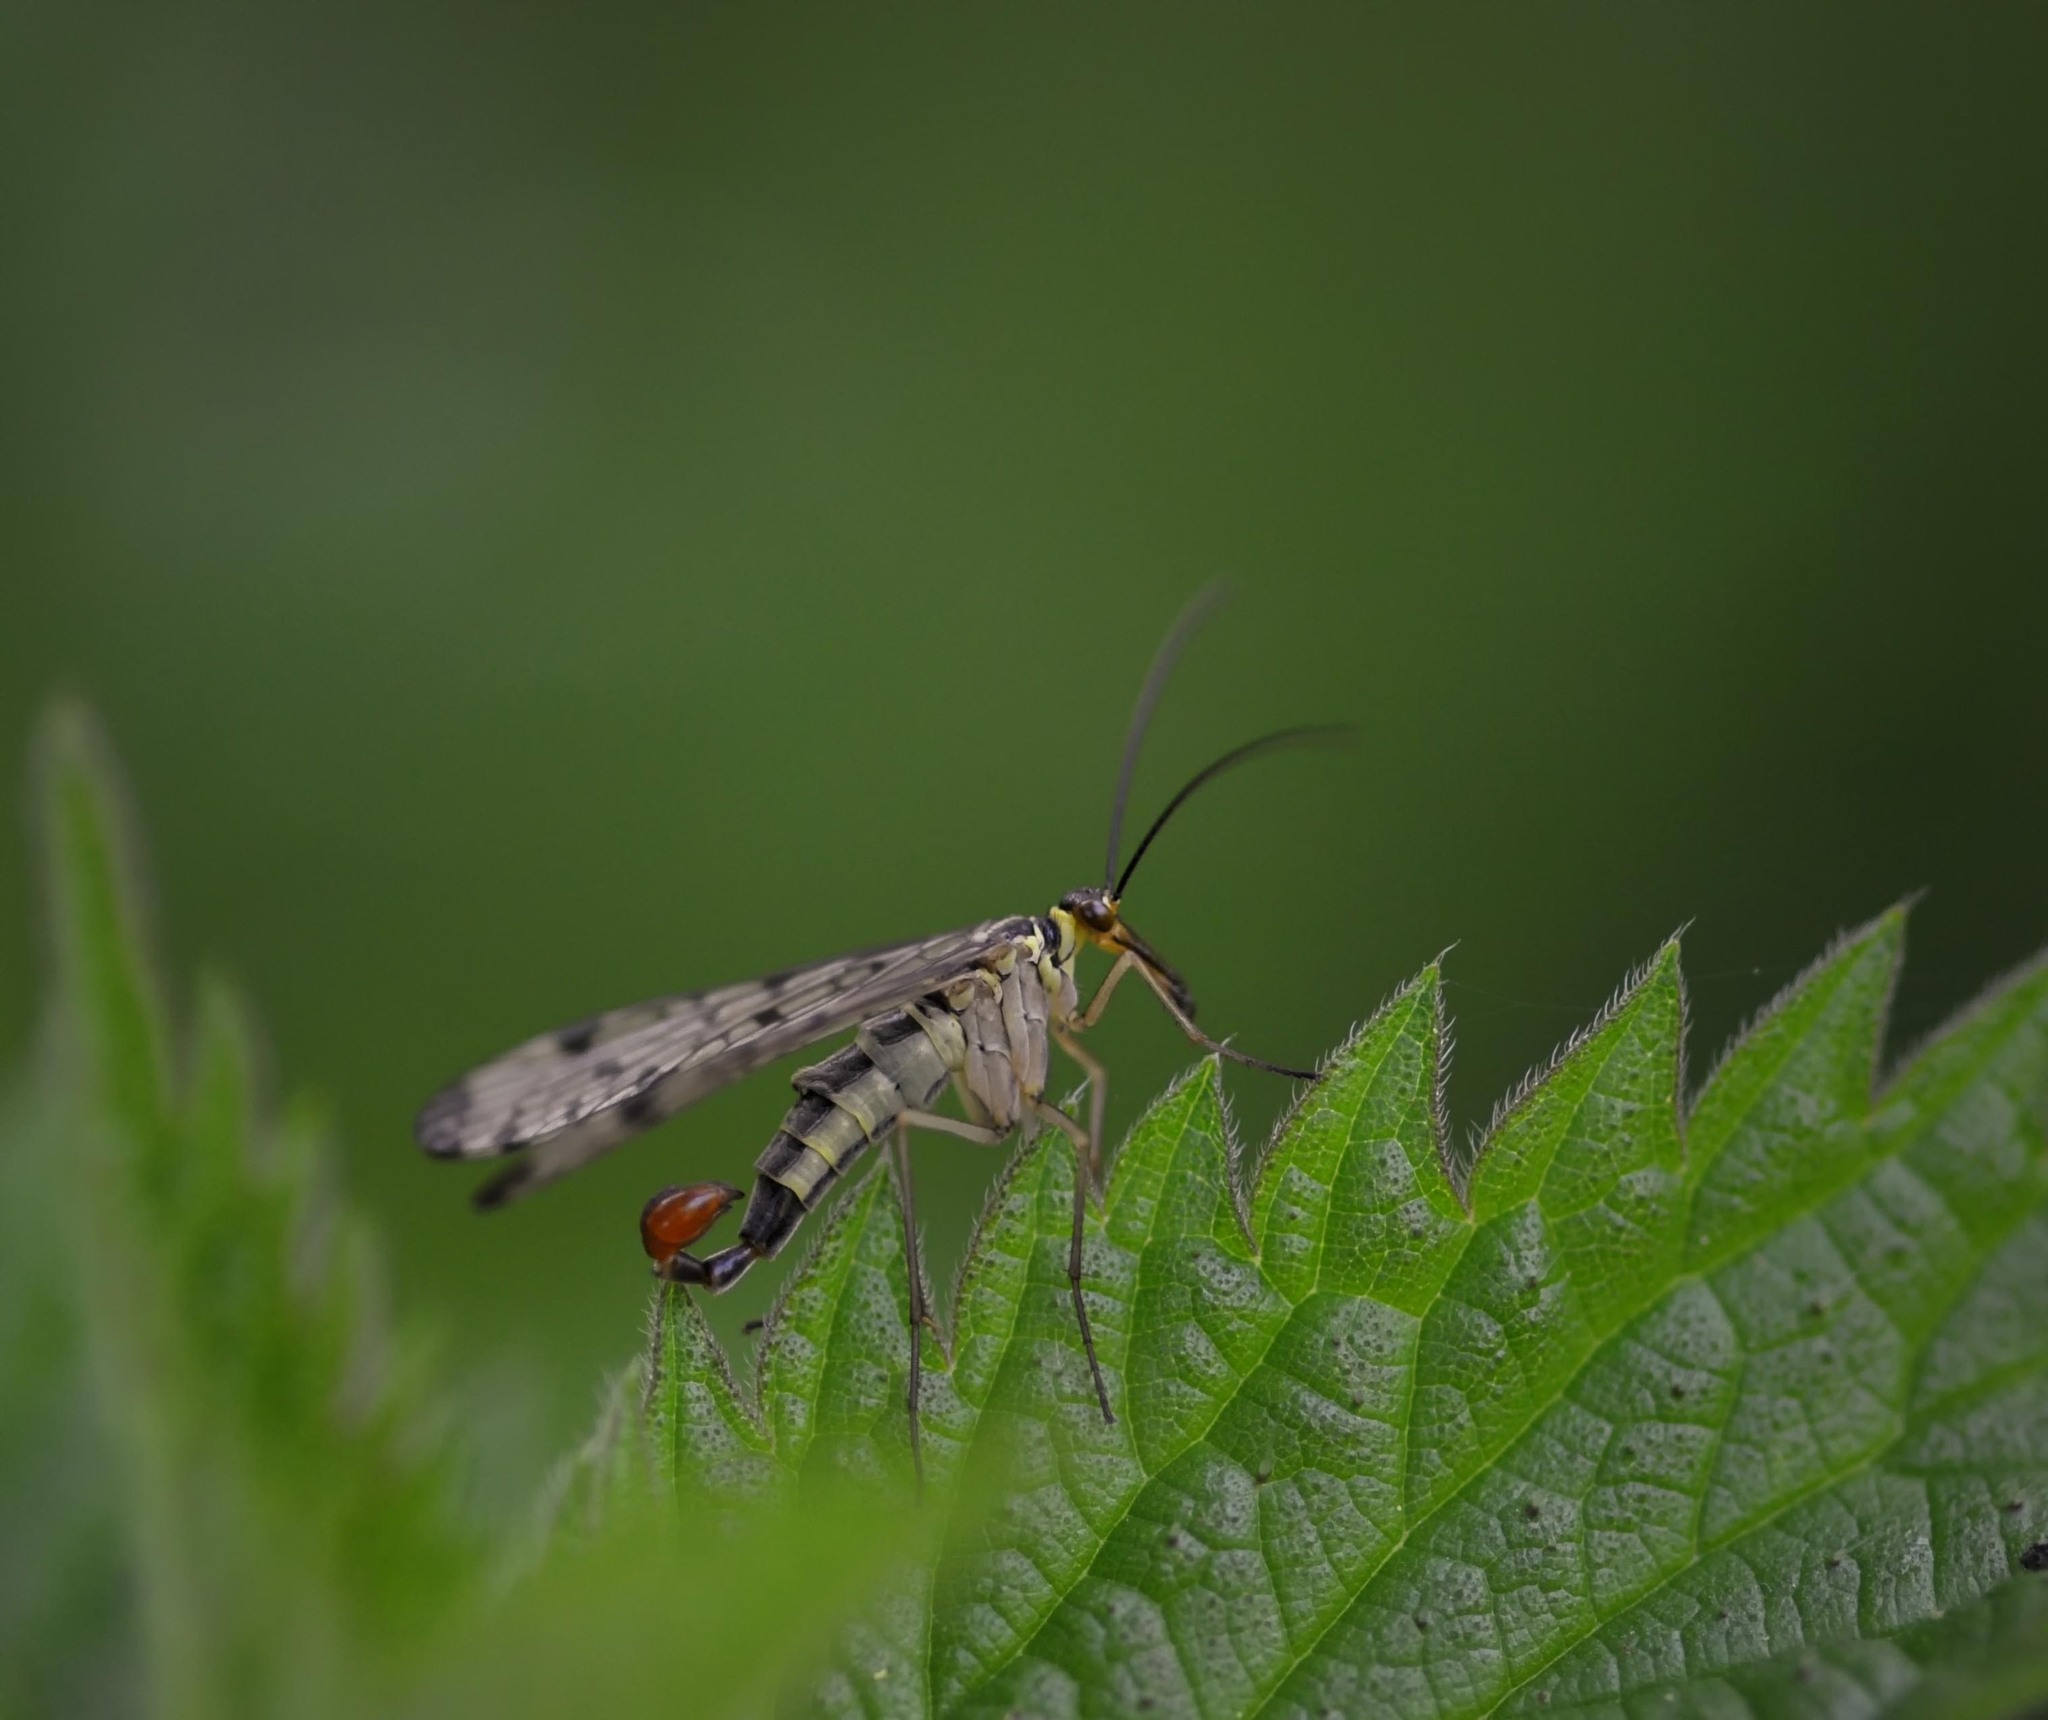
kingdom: Animalia
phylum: Arthropoda
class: Insecta
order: Mecoptera
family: Panorpidae
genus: Panorpa
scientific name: Panorpa germanica
